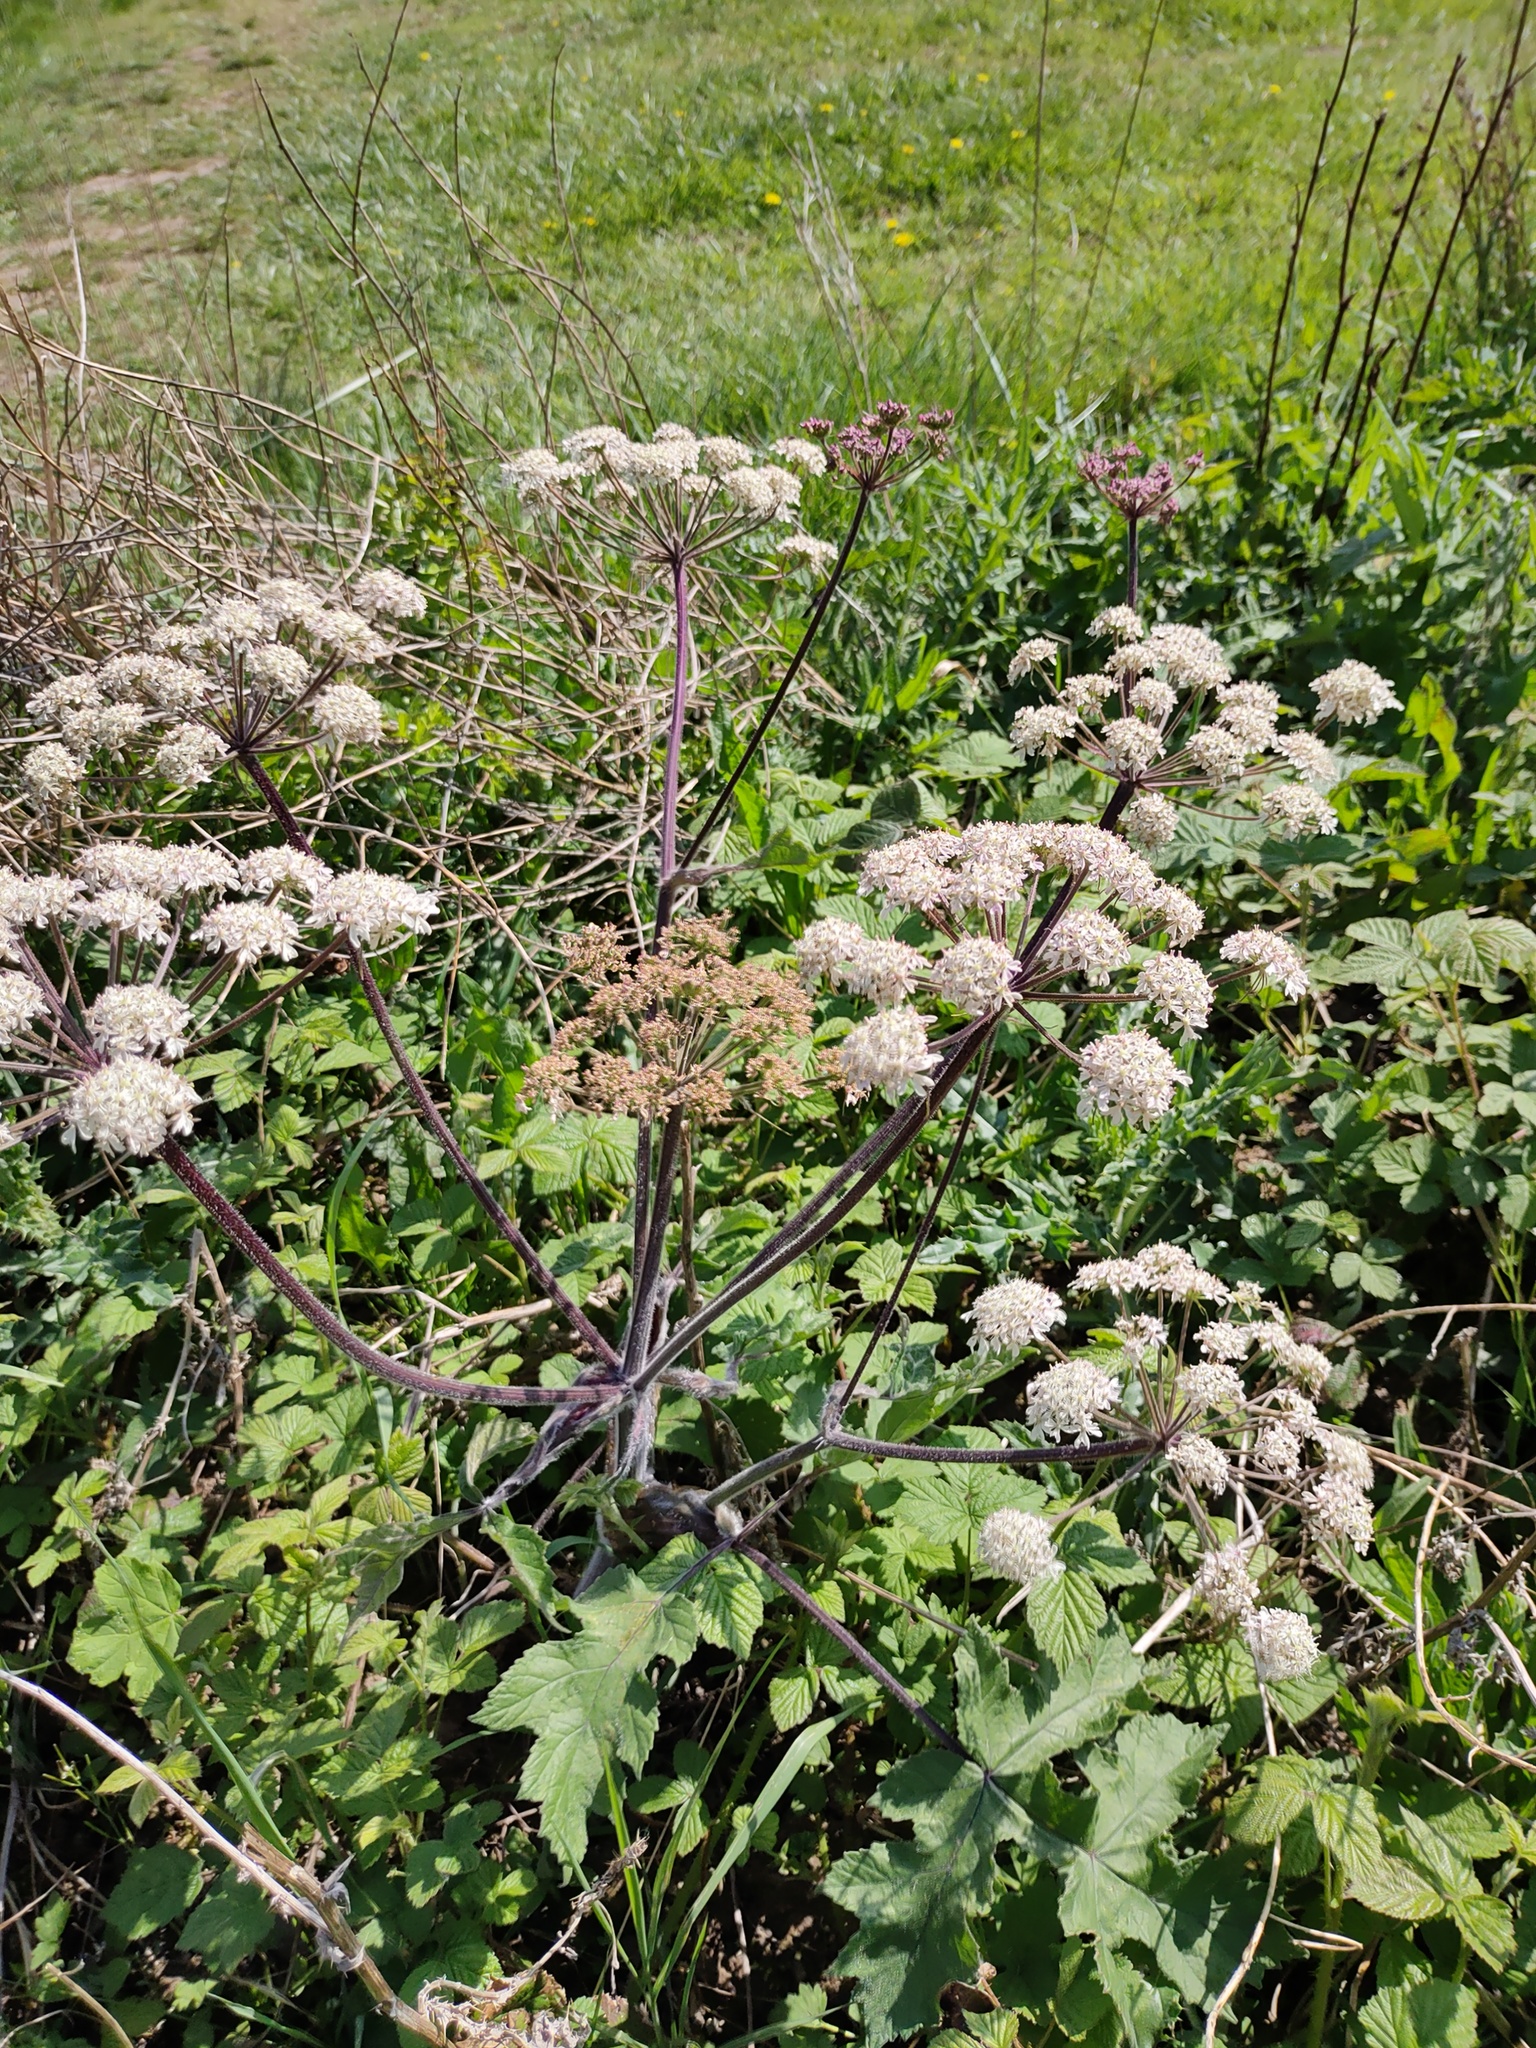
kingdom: Plantae
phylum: Tracheophyta
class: Magnoliopsida
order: Apiales
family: Apiaceae
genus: Angelica
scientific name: Angelica sylvestris
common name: Wild angelica
